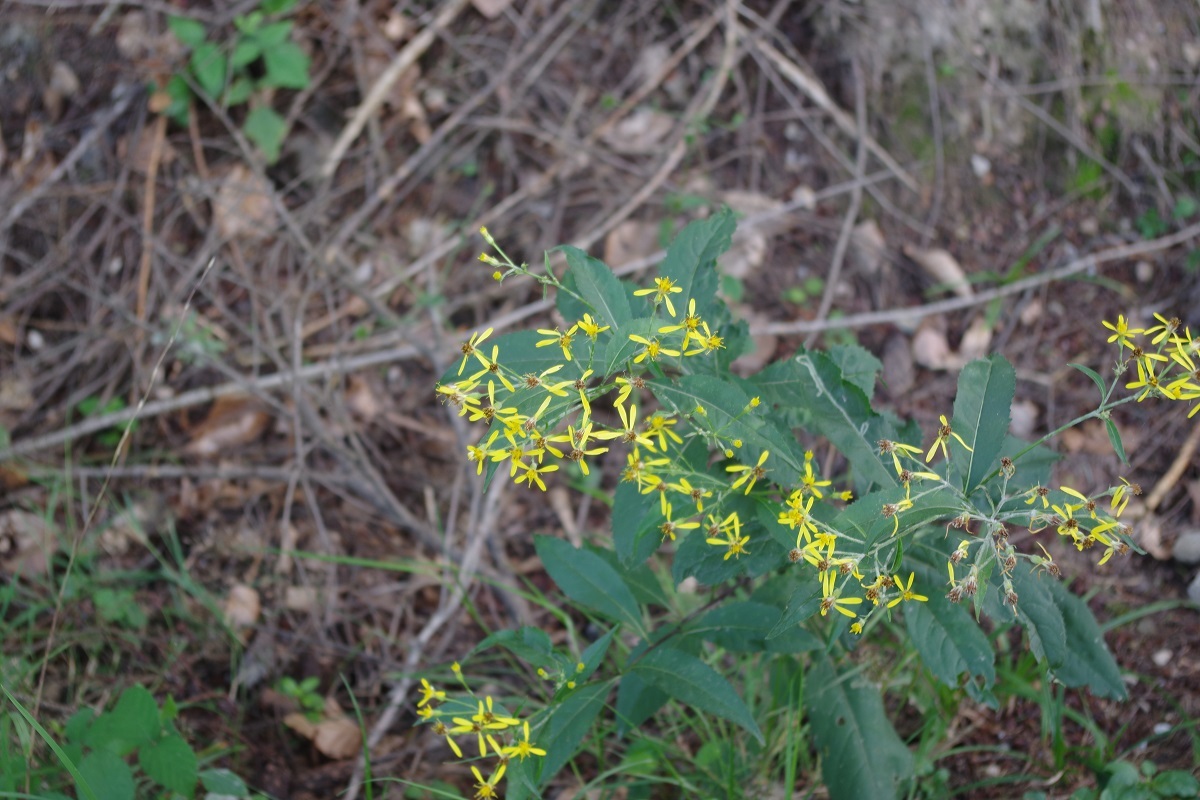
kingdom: Plantae
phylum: Tracheophyta
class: Magnoliopsida
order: Asterales
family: Asteraceae
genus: Senecio
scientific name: Senecio ovatus
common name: Wood ragwort
